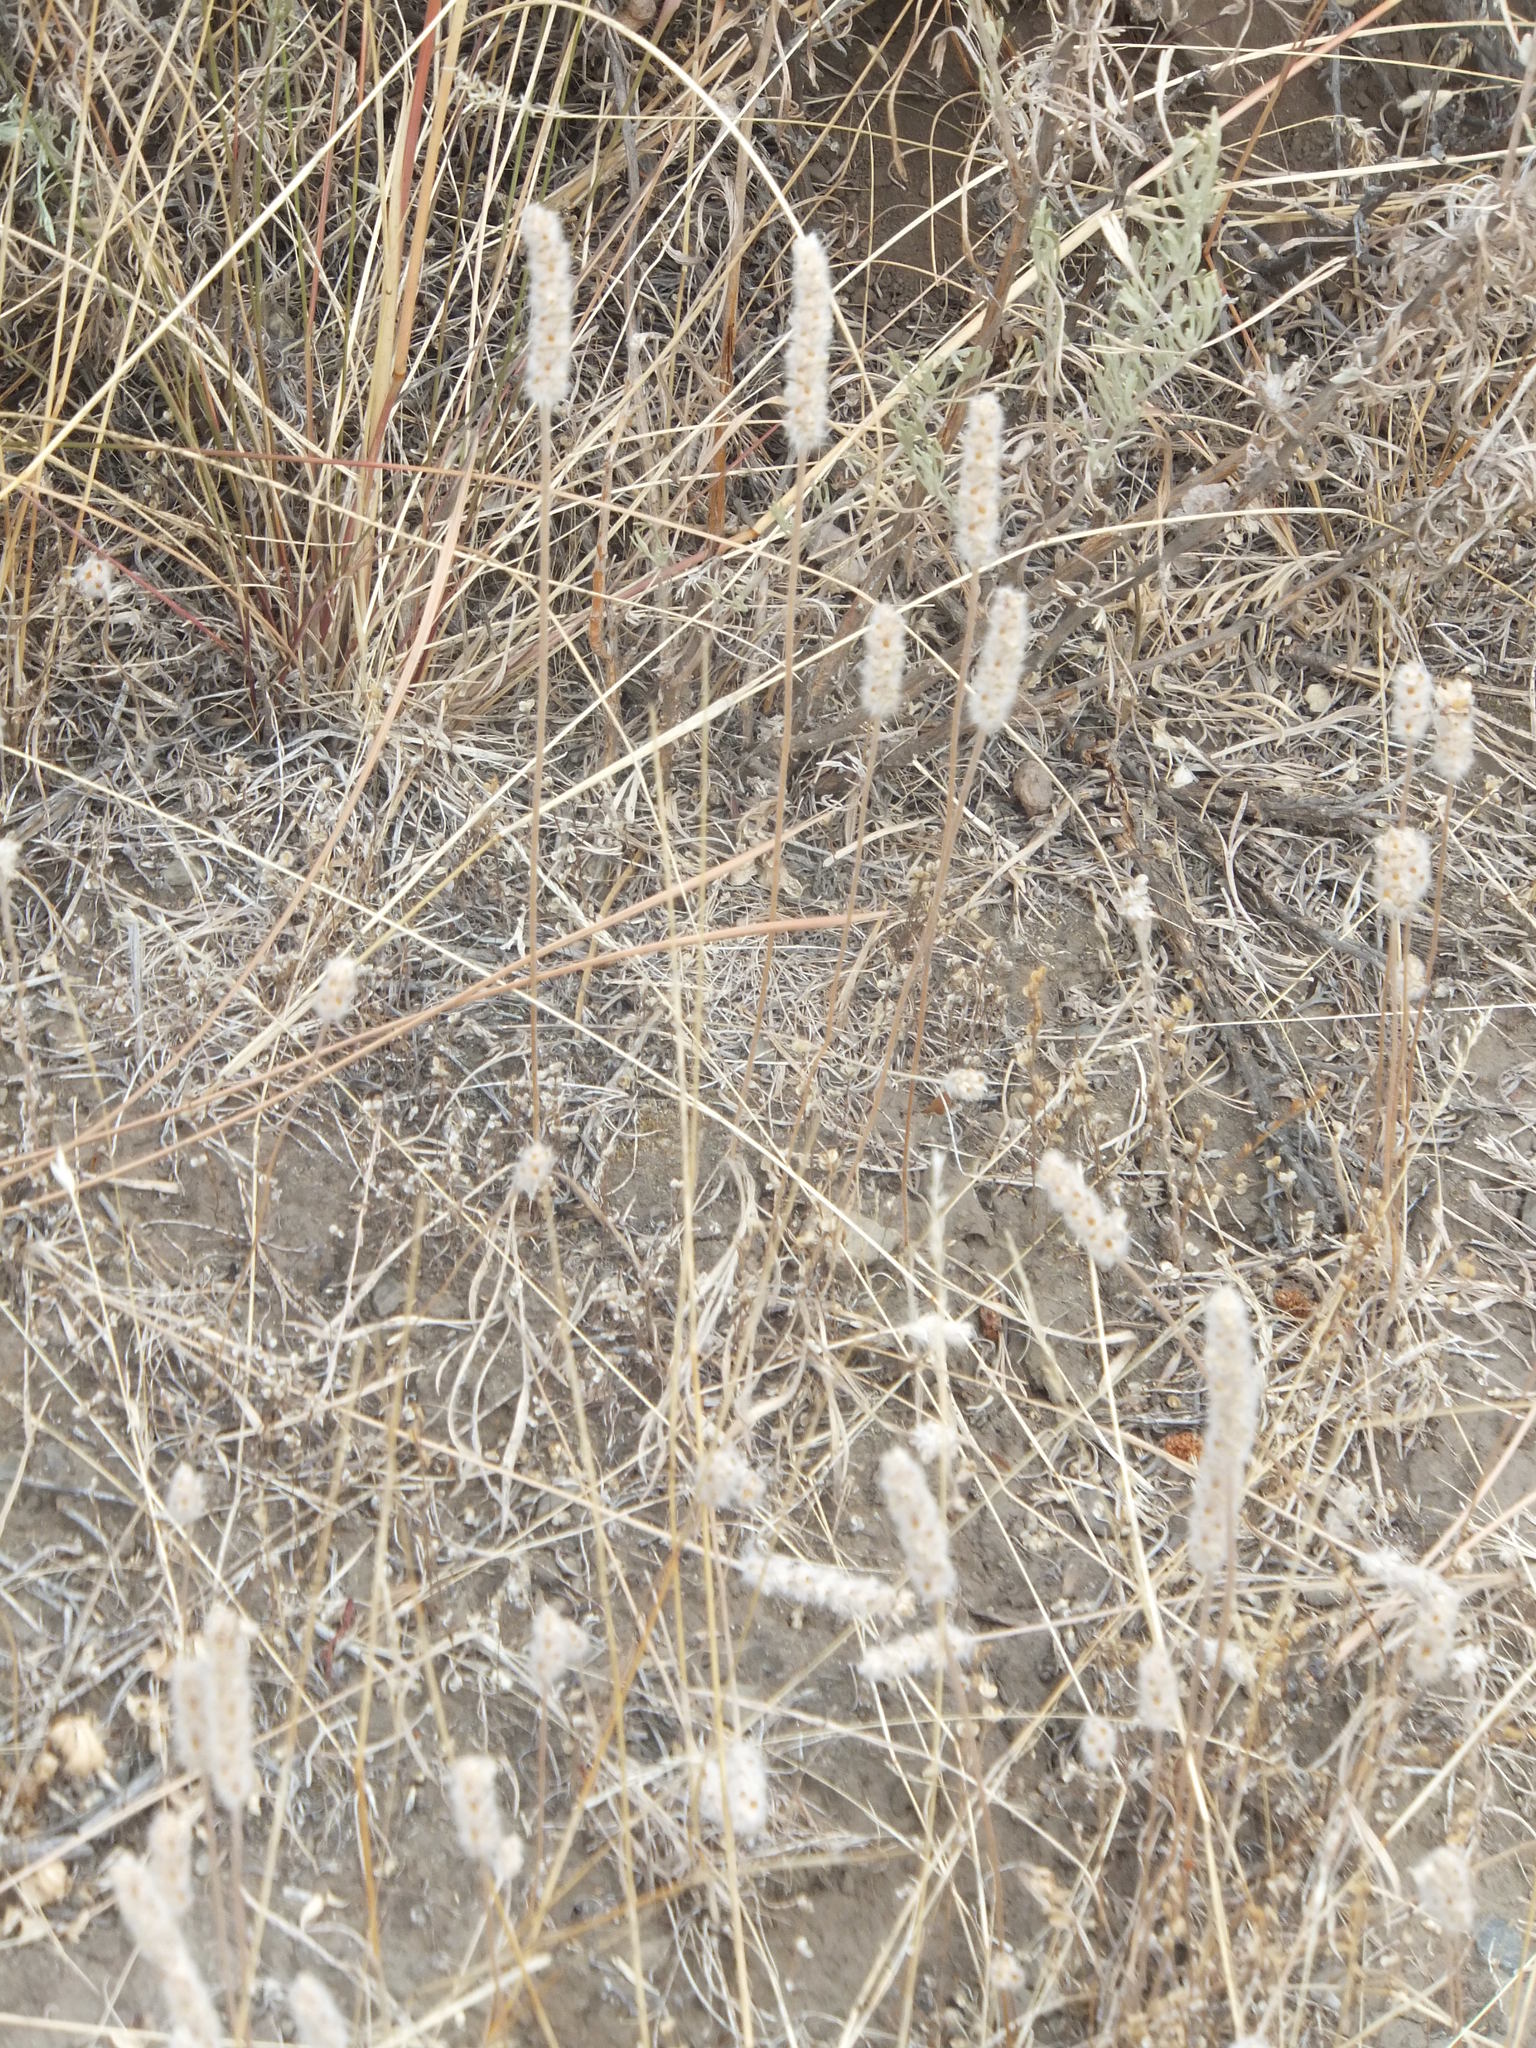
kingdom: Plantae
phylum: Tracheophyta
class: Magnoliopsida
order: Lamiales
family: Plantaginaceae
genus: Plantago
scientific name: Plantago patagonica
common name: Patagonia indian-wheat
